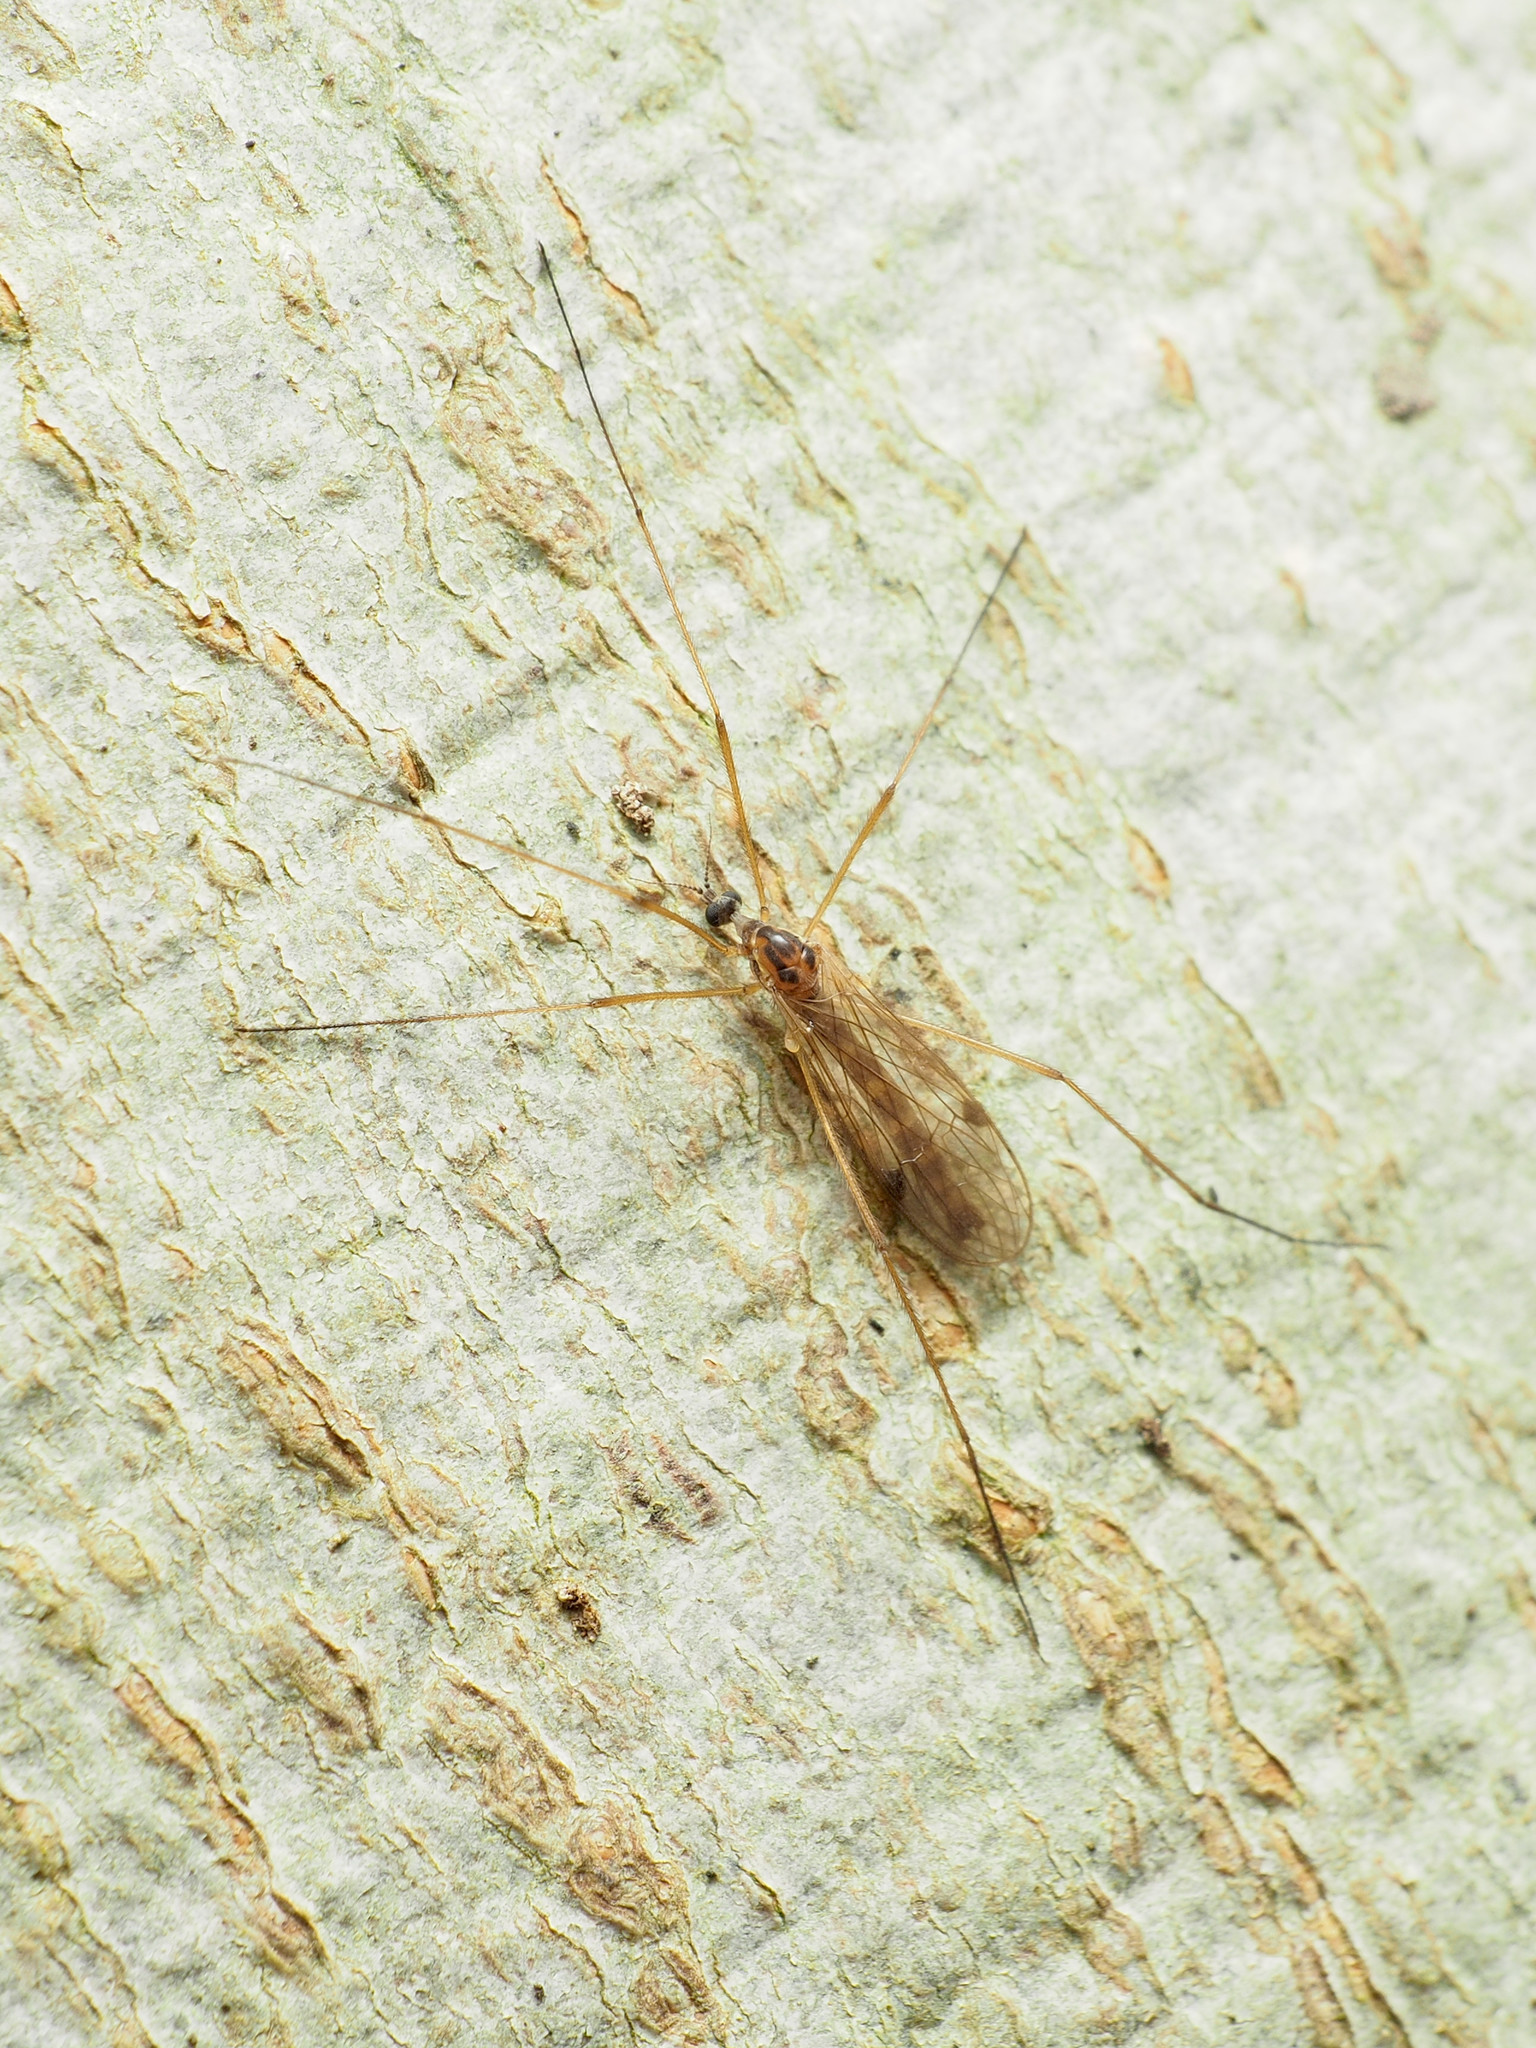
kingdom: Animalia
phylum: Arthropoda
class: Insecta
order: Diptera
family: Limoniidae
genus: Teucholabis
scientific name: Teucholabis complexa
